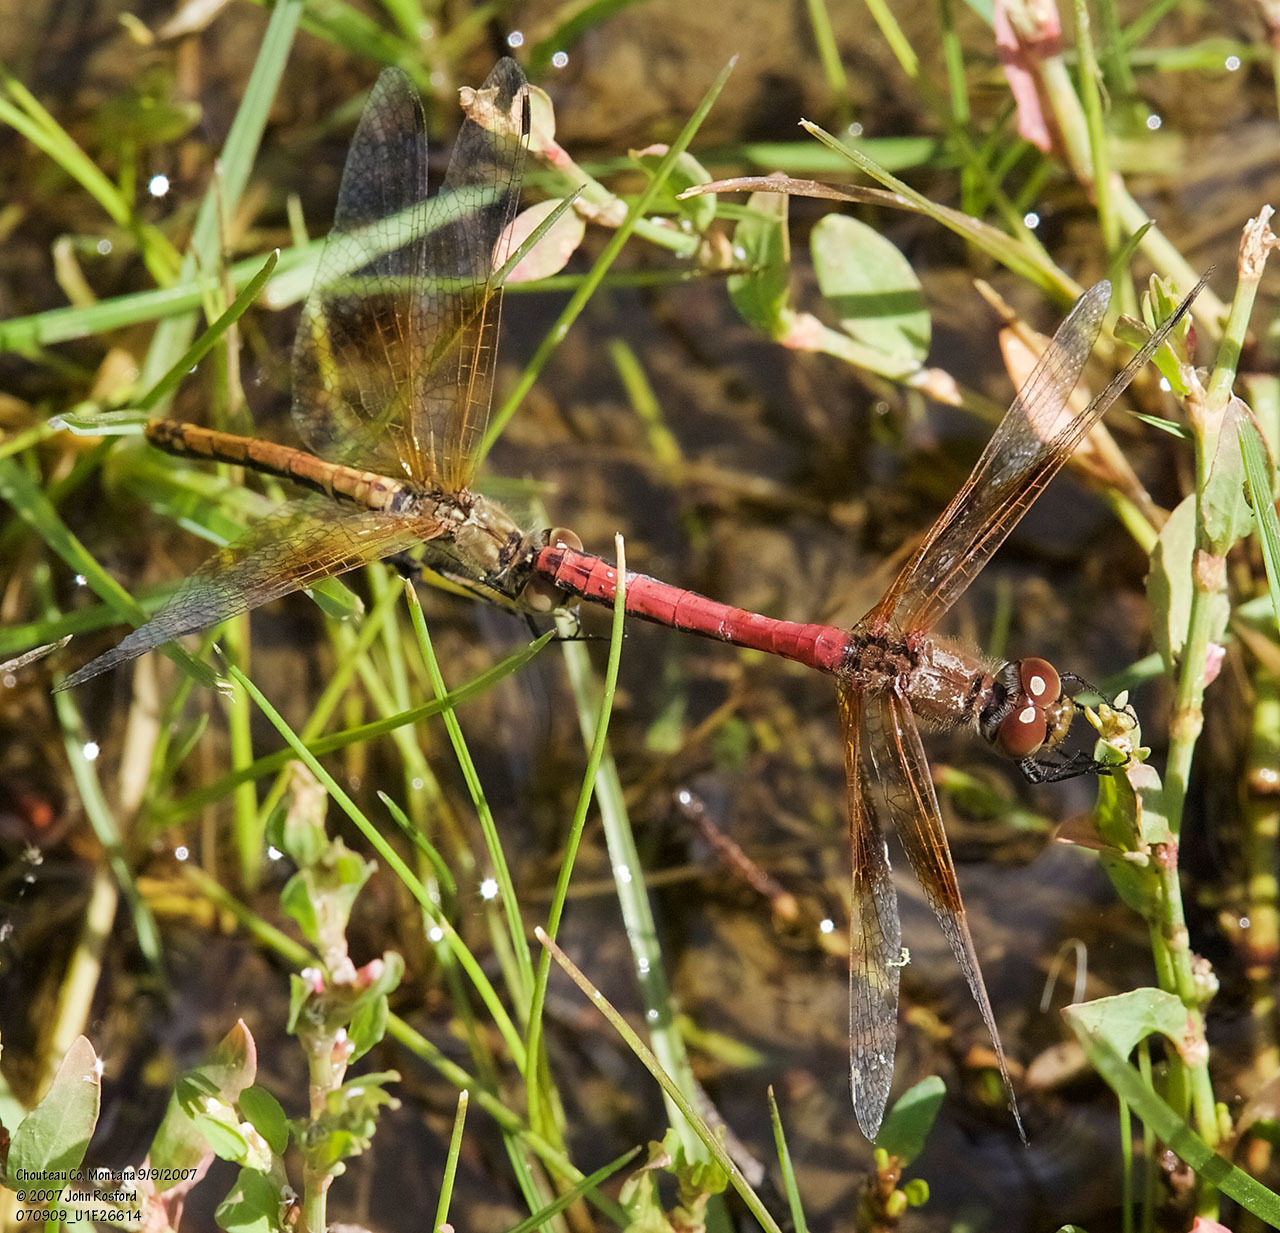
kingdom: Animalia
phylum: Arthropoda
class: Insecta
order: Odonata
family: Libellulidae
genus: Sympetrum
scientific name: Sympetrum semicinctum
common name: Band-winged meadowhawk
